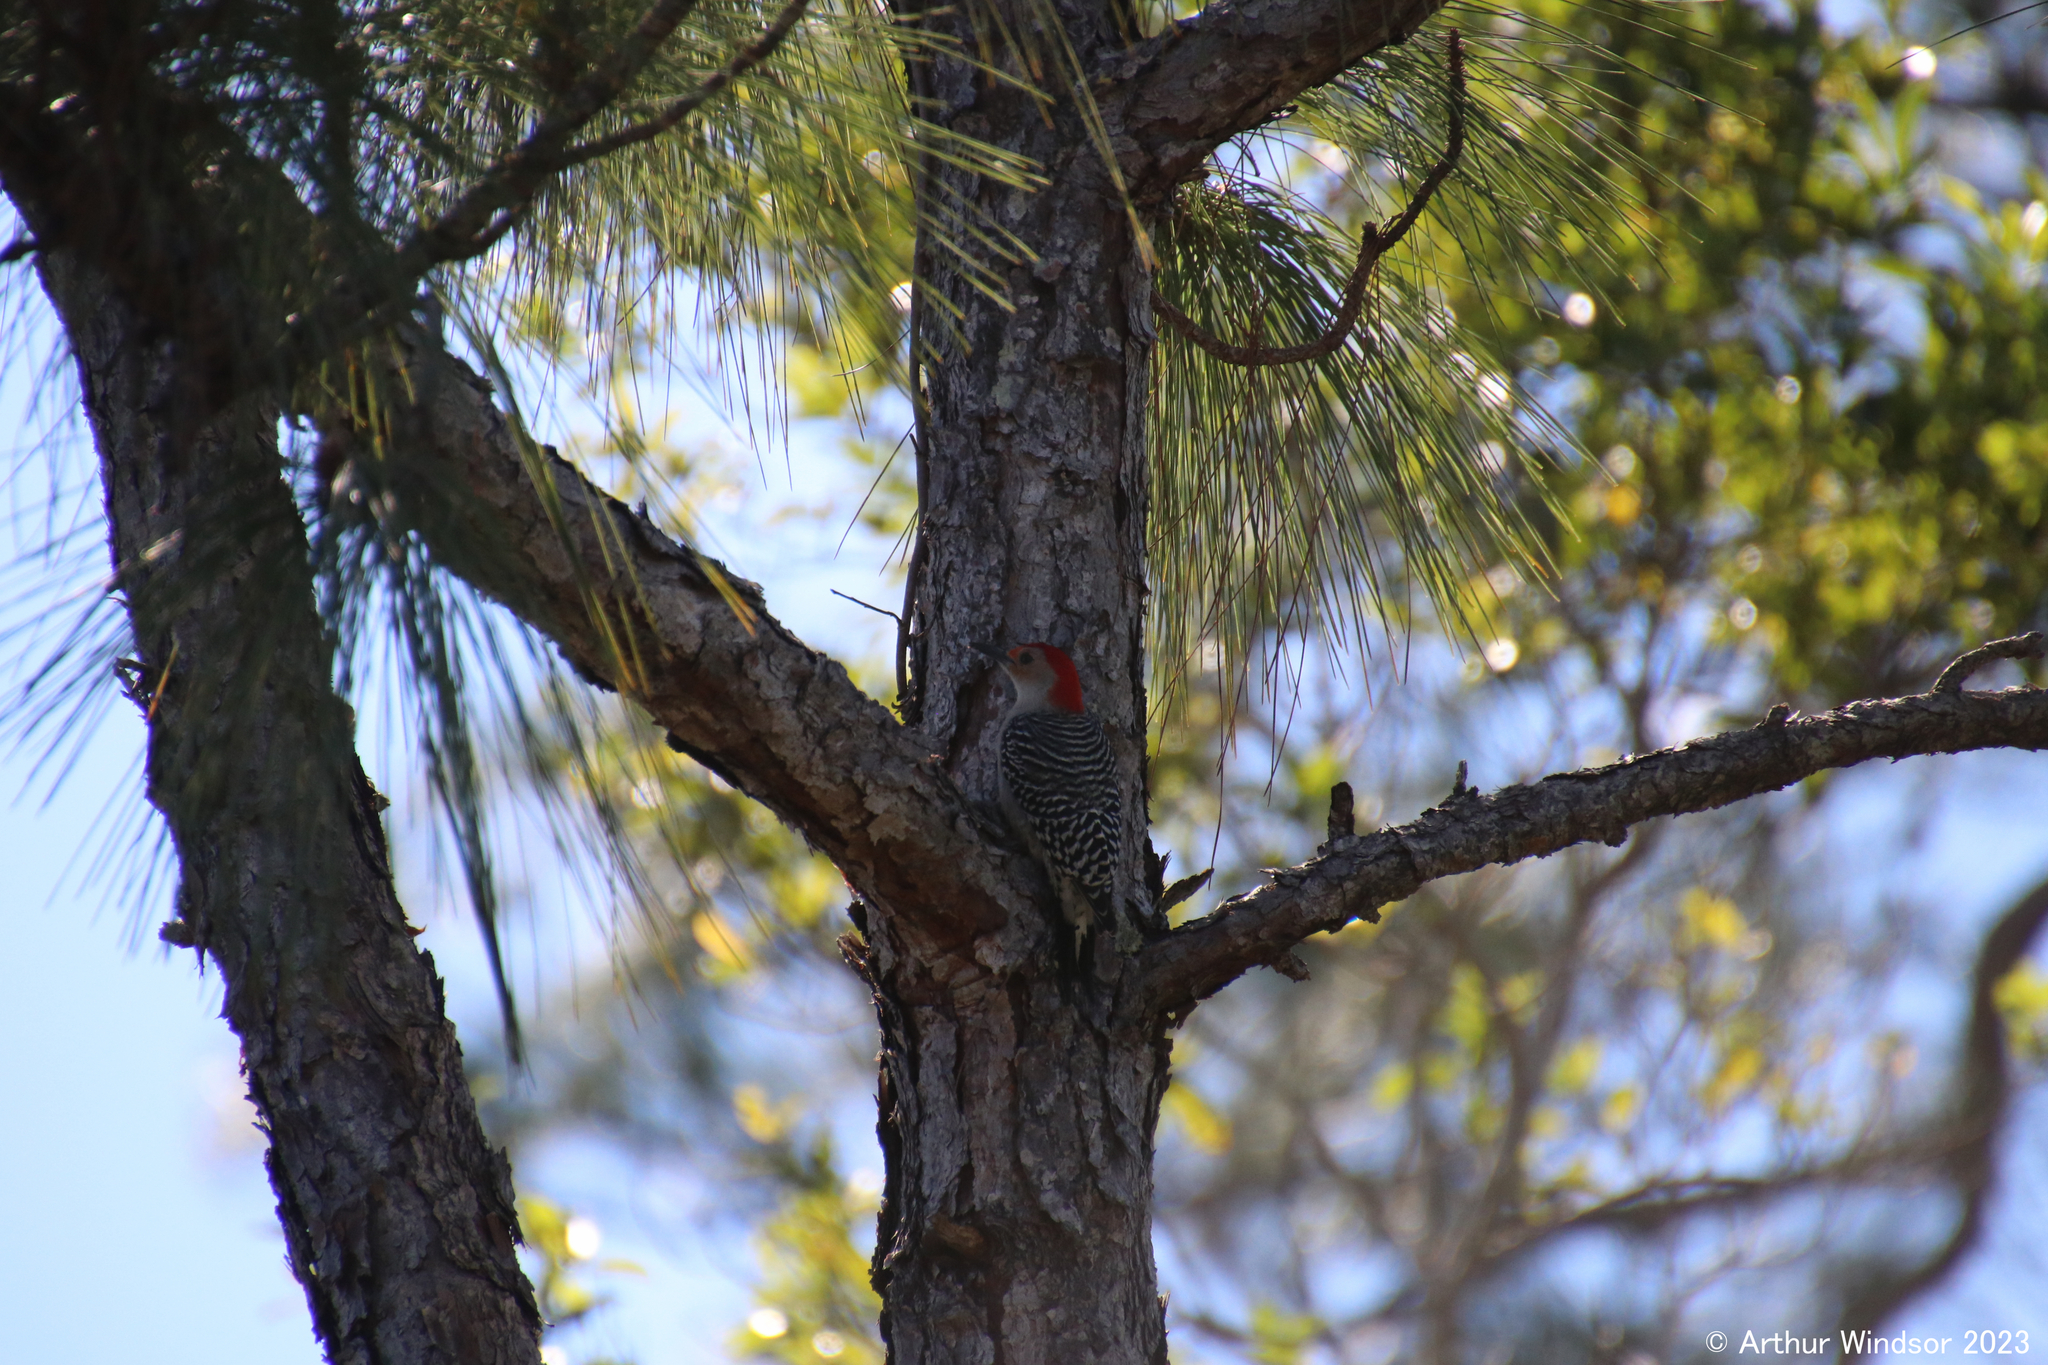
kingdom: Animalia
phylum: Chordata
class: Aves
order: Piciformes
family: Picidae
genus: Melanerpes
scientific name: Melanerpes carolinus
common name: Red-bellied woodpecker
